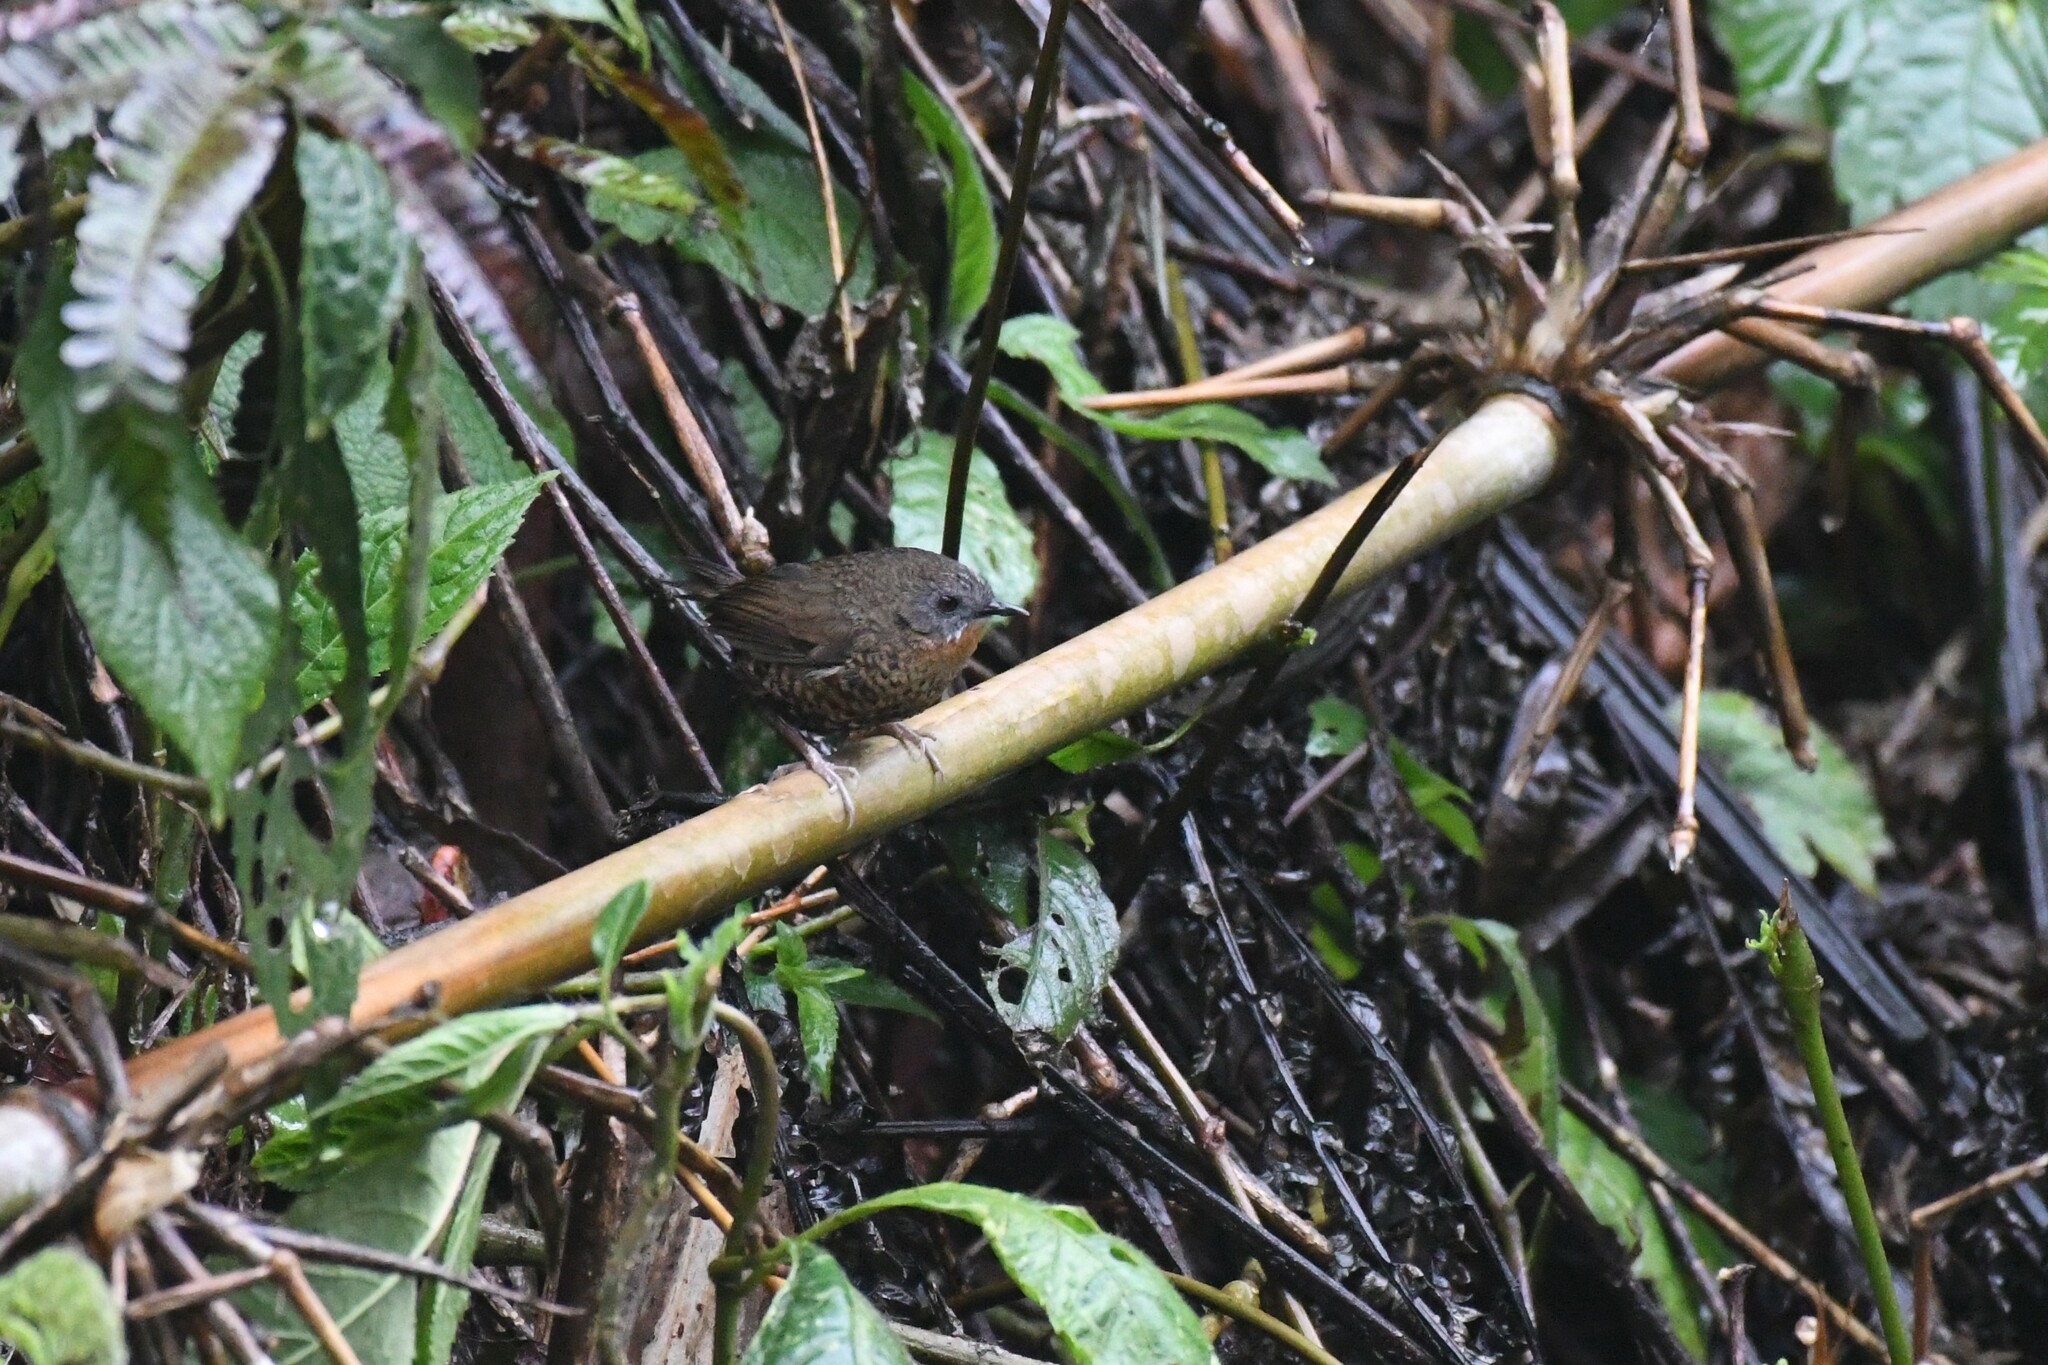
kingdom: Animalia
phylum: Chordata
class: Aves
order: Passeriformes
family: Timaliidae
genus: Spelaeornis
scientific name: Spelaeornis caudatus
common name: Rufous-throated wren-babbler
